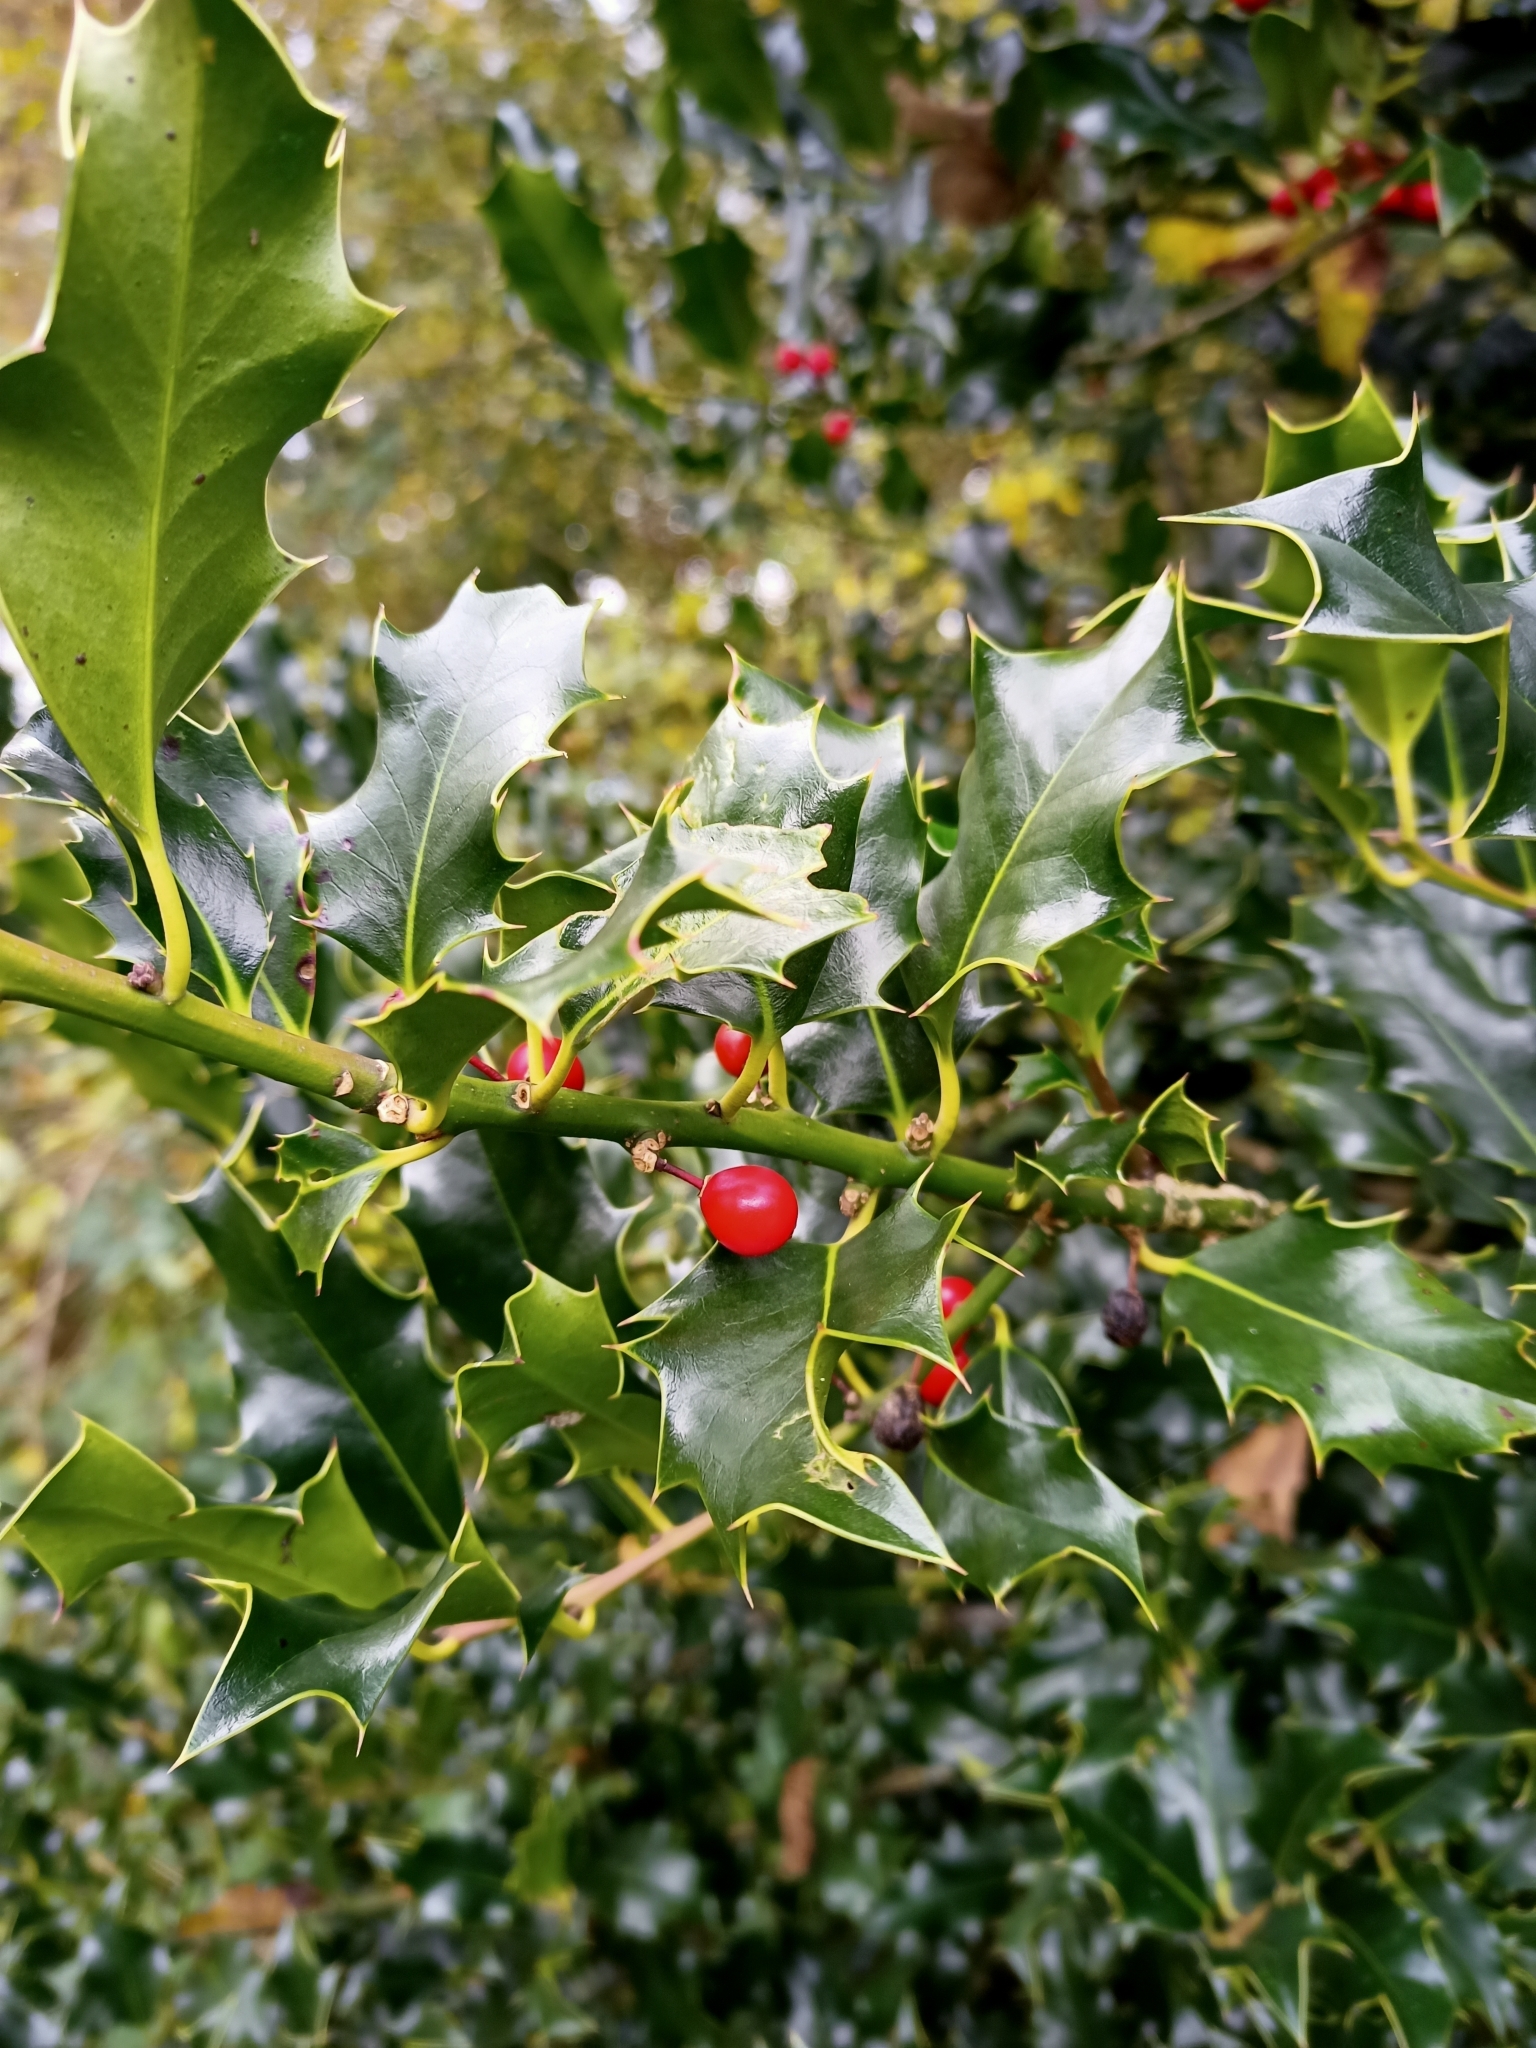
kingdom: Plantae
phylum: Tracheophyta
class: Magnoliopsida
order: Aquifoliales
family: Aquifoliaceae
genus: Ilex
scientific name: Ilex aquifolium
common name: English holly
